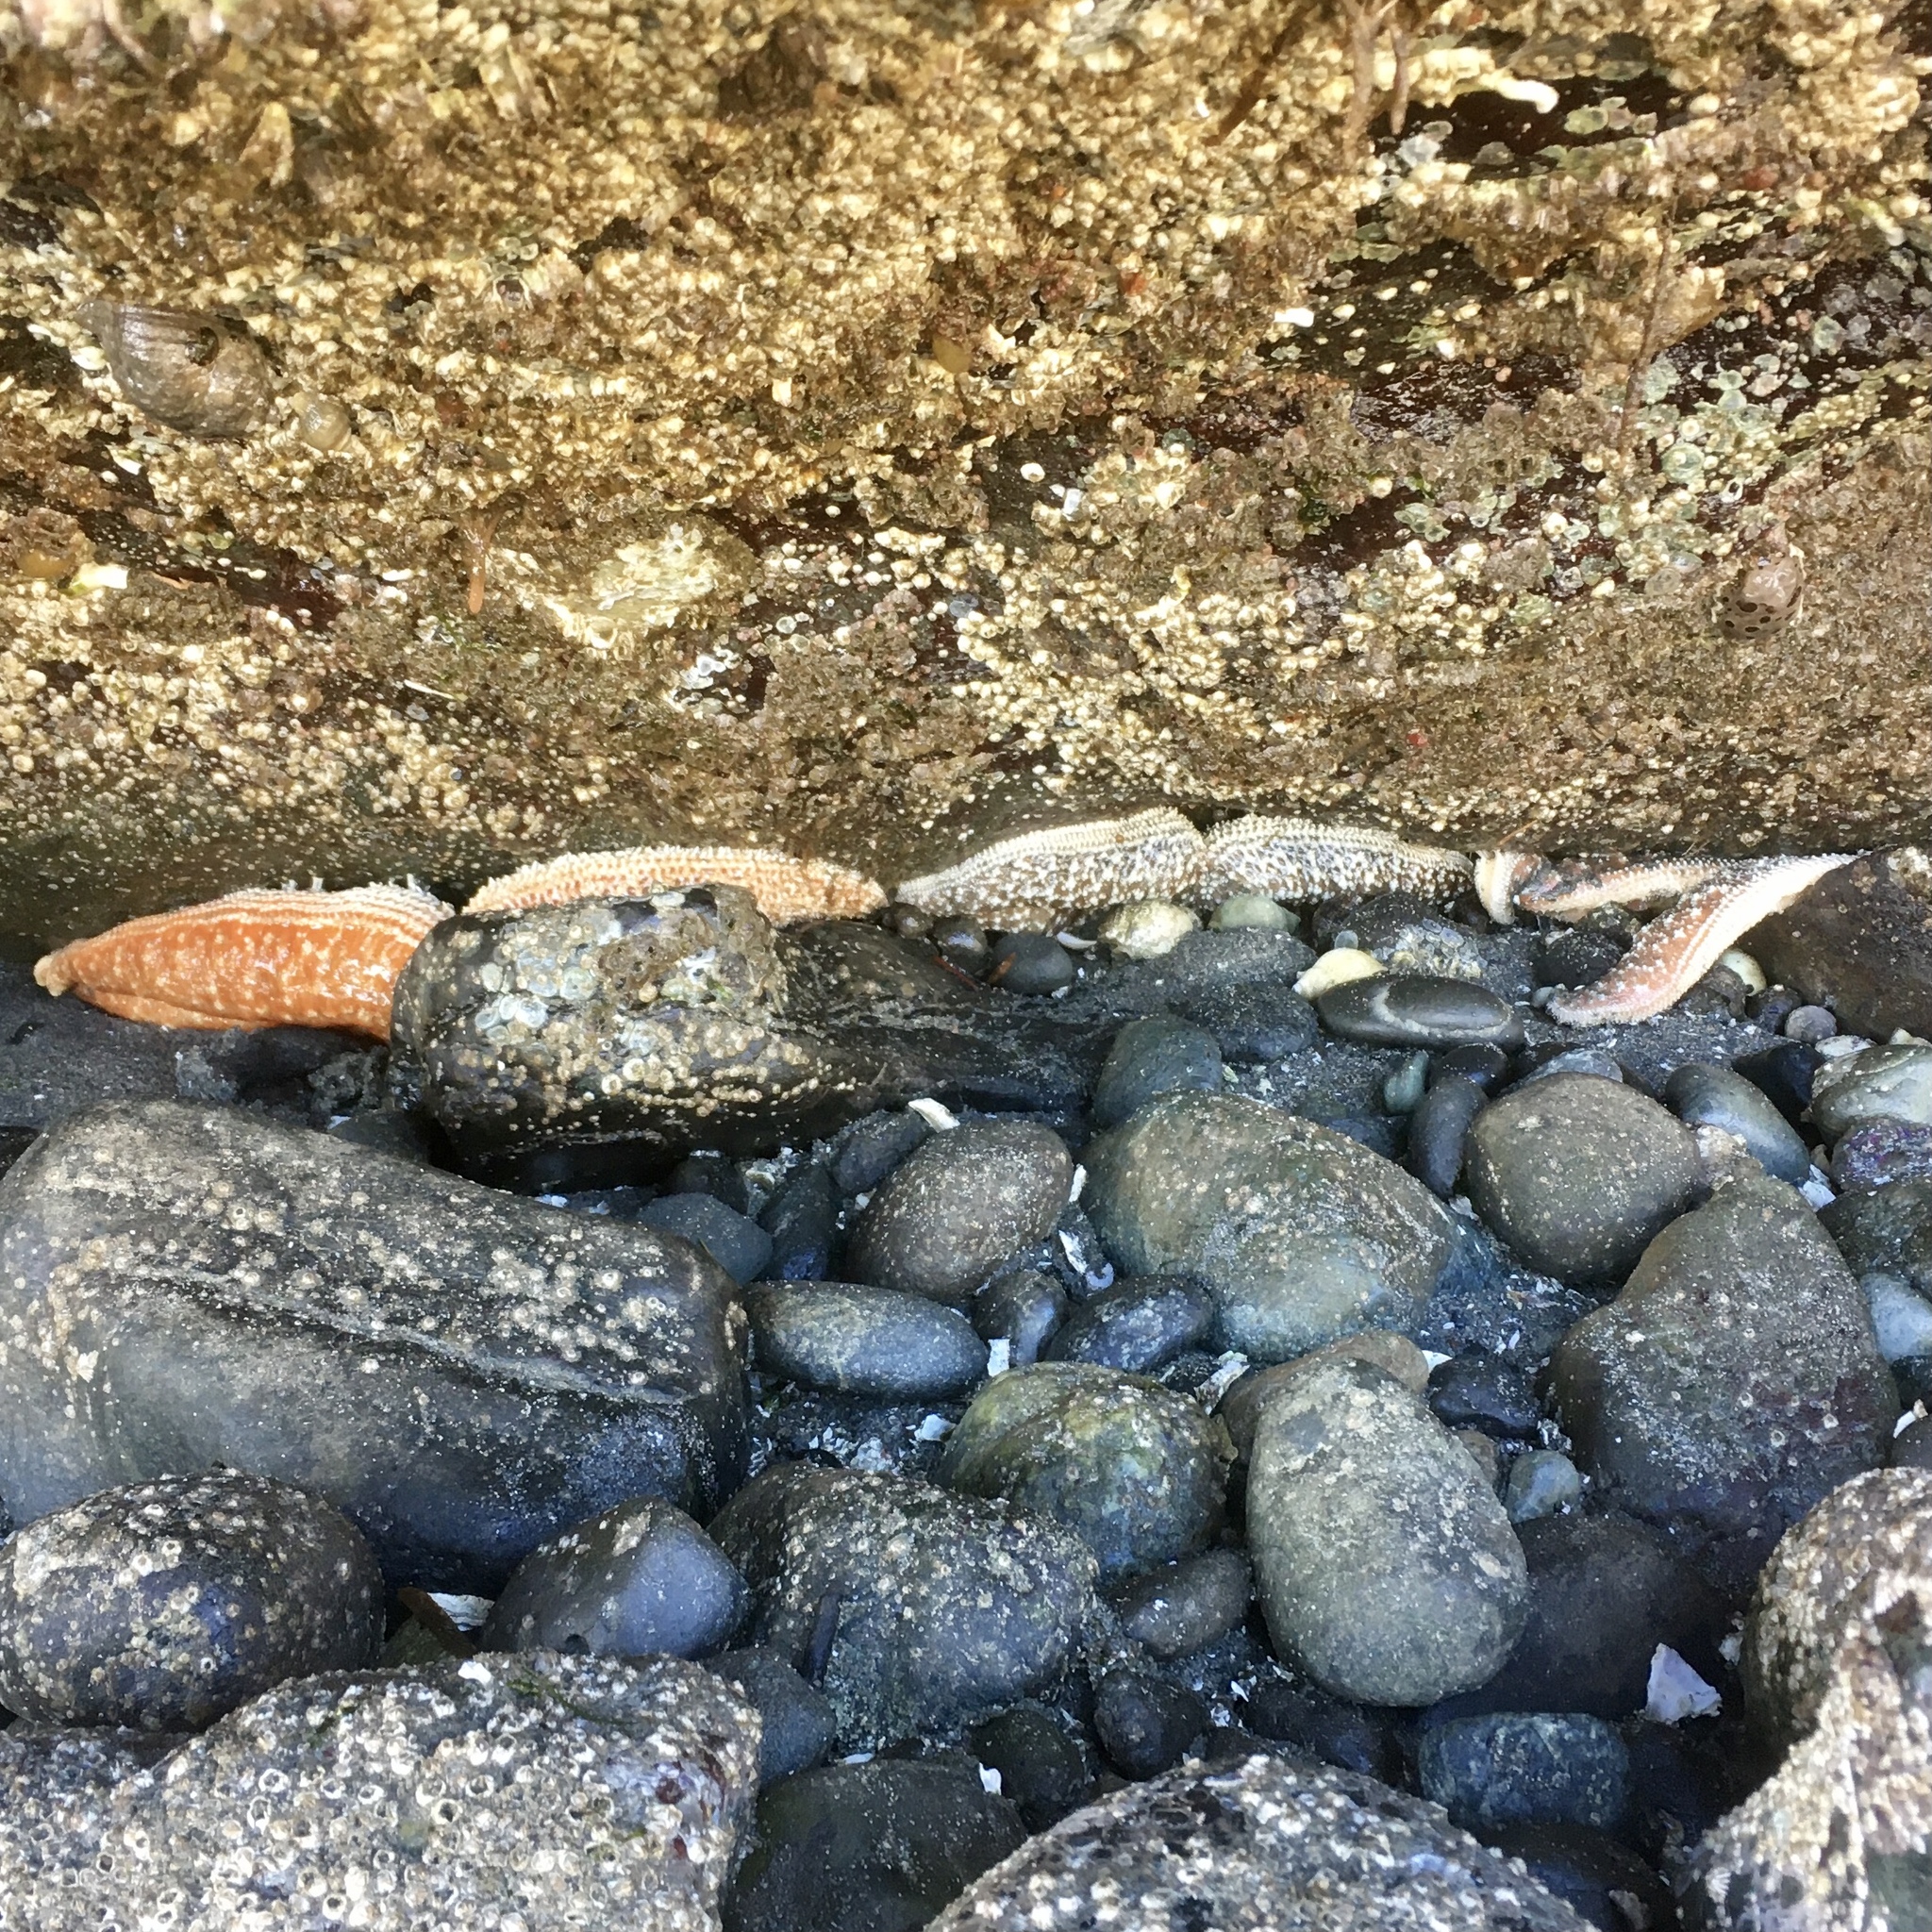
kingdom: Animalia
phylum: Echinodermata
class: Asteroidea
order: Forcipulatida
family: Asteriidae
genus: Evasterias
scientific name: Evasterias troschelii
